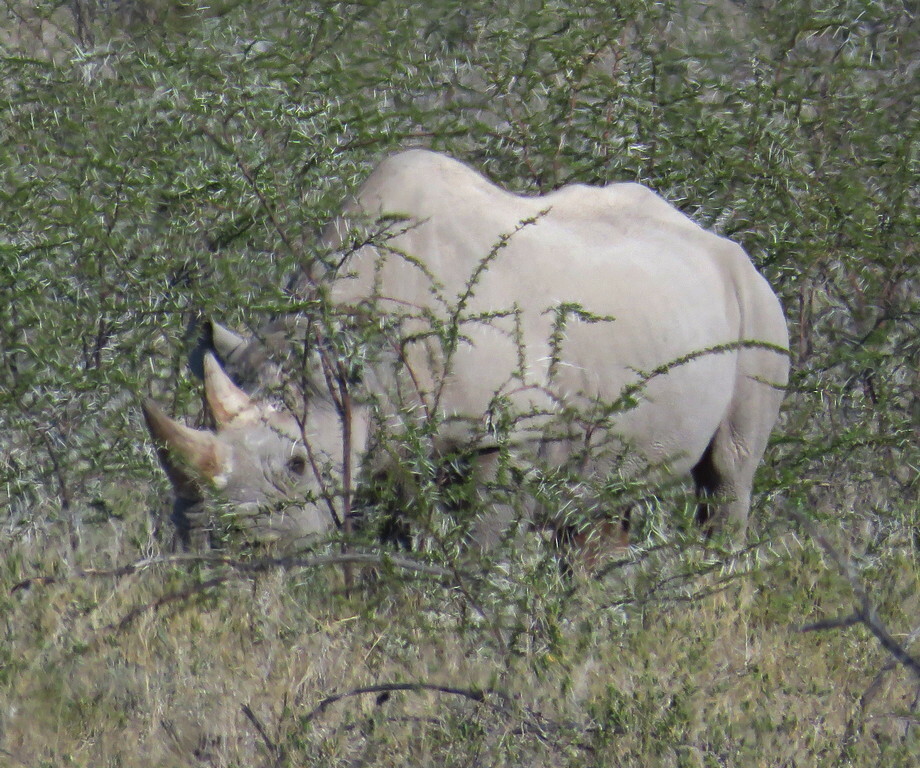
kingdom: Animalia
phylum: Chordata
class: Mammalia
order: Perissodactyla
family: Rhinocerotidae
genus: Diceros
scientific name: Diceros bicornis
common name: Black rhinoceros
